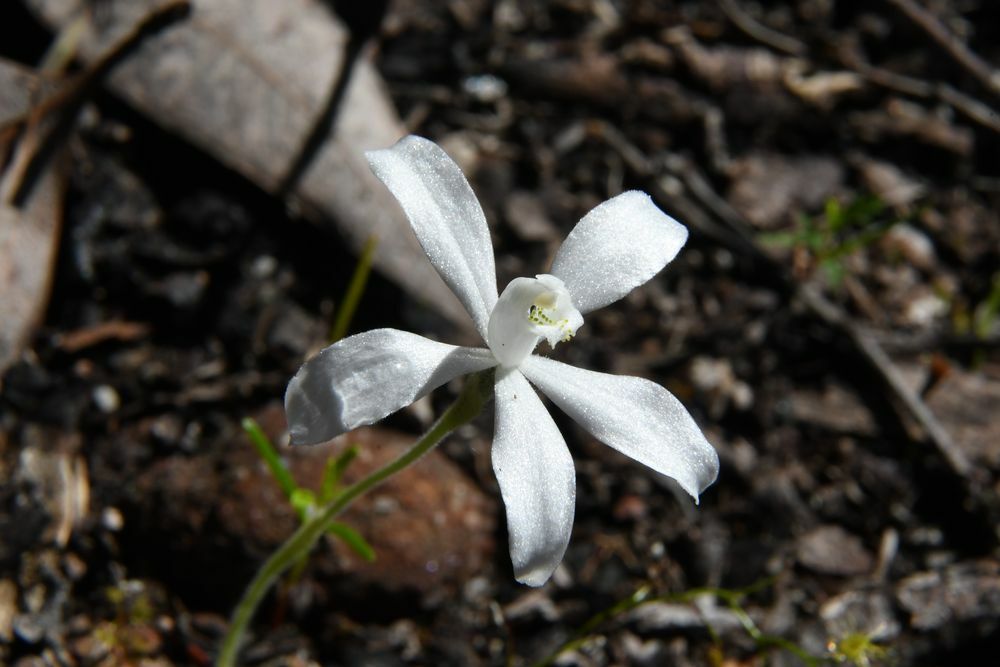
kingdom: Plantae
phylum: Tracheophyta
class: Liliopsida
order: Asparagales
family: Orchidaceae
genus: Caladenia
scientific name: Caladenia sericea
